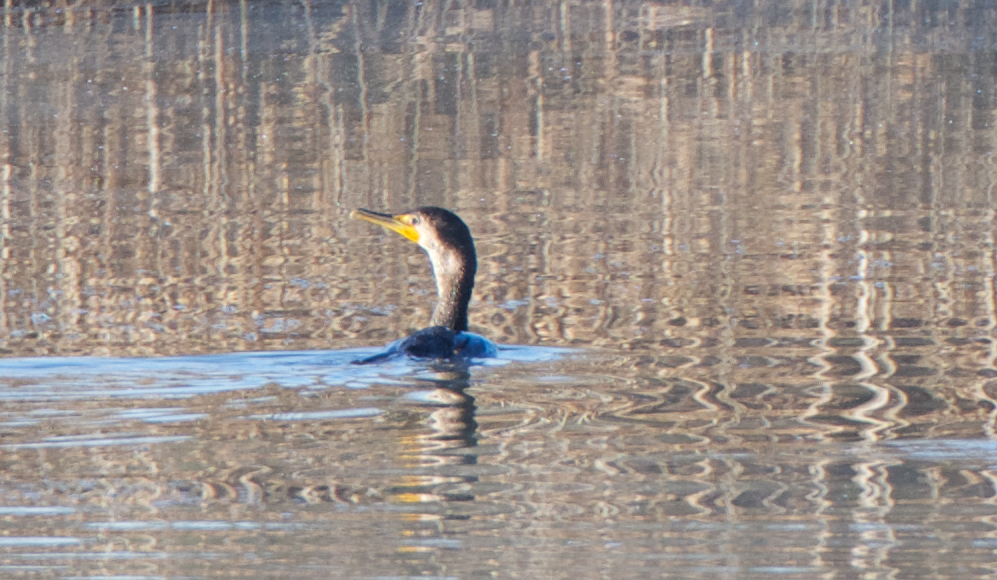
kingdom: Animalia
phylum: Chordata
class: Aves
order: Suliformes
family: Phalacrocoracidae
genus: Phalacrocorax
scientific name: Phalacrocorax auritus
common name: Double-crested cormorant
